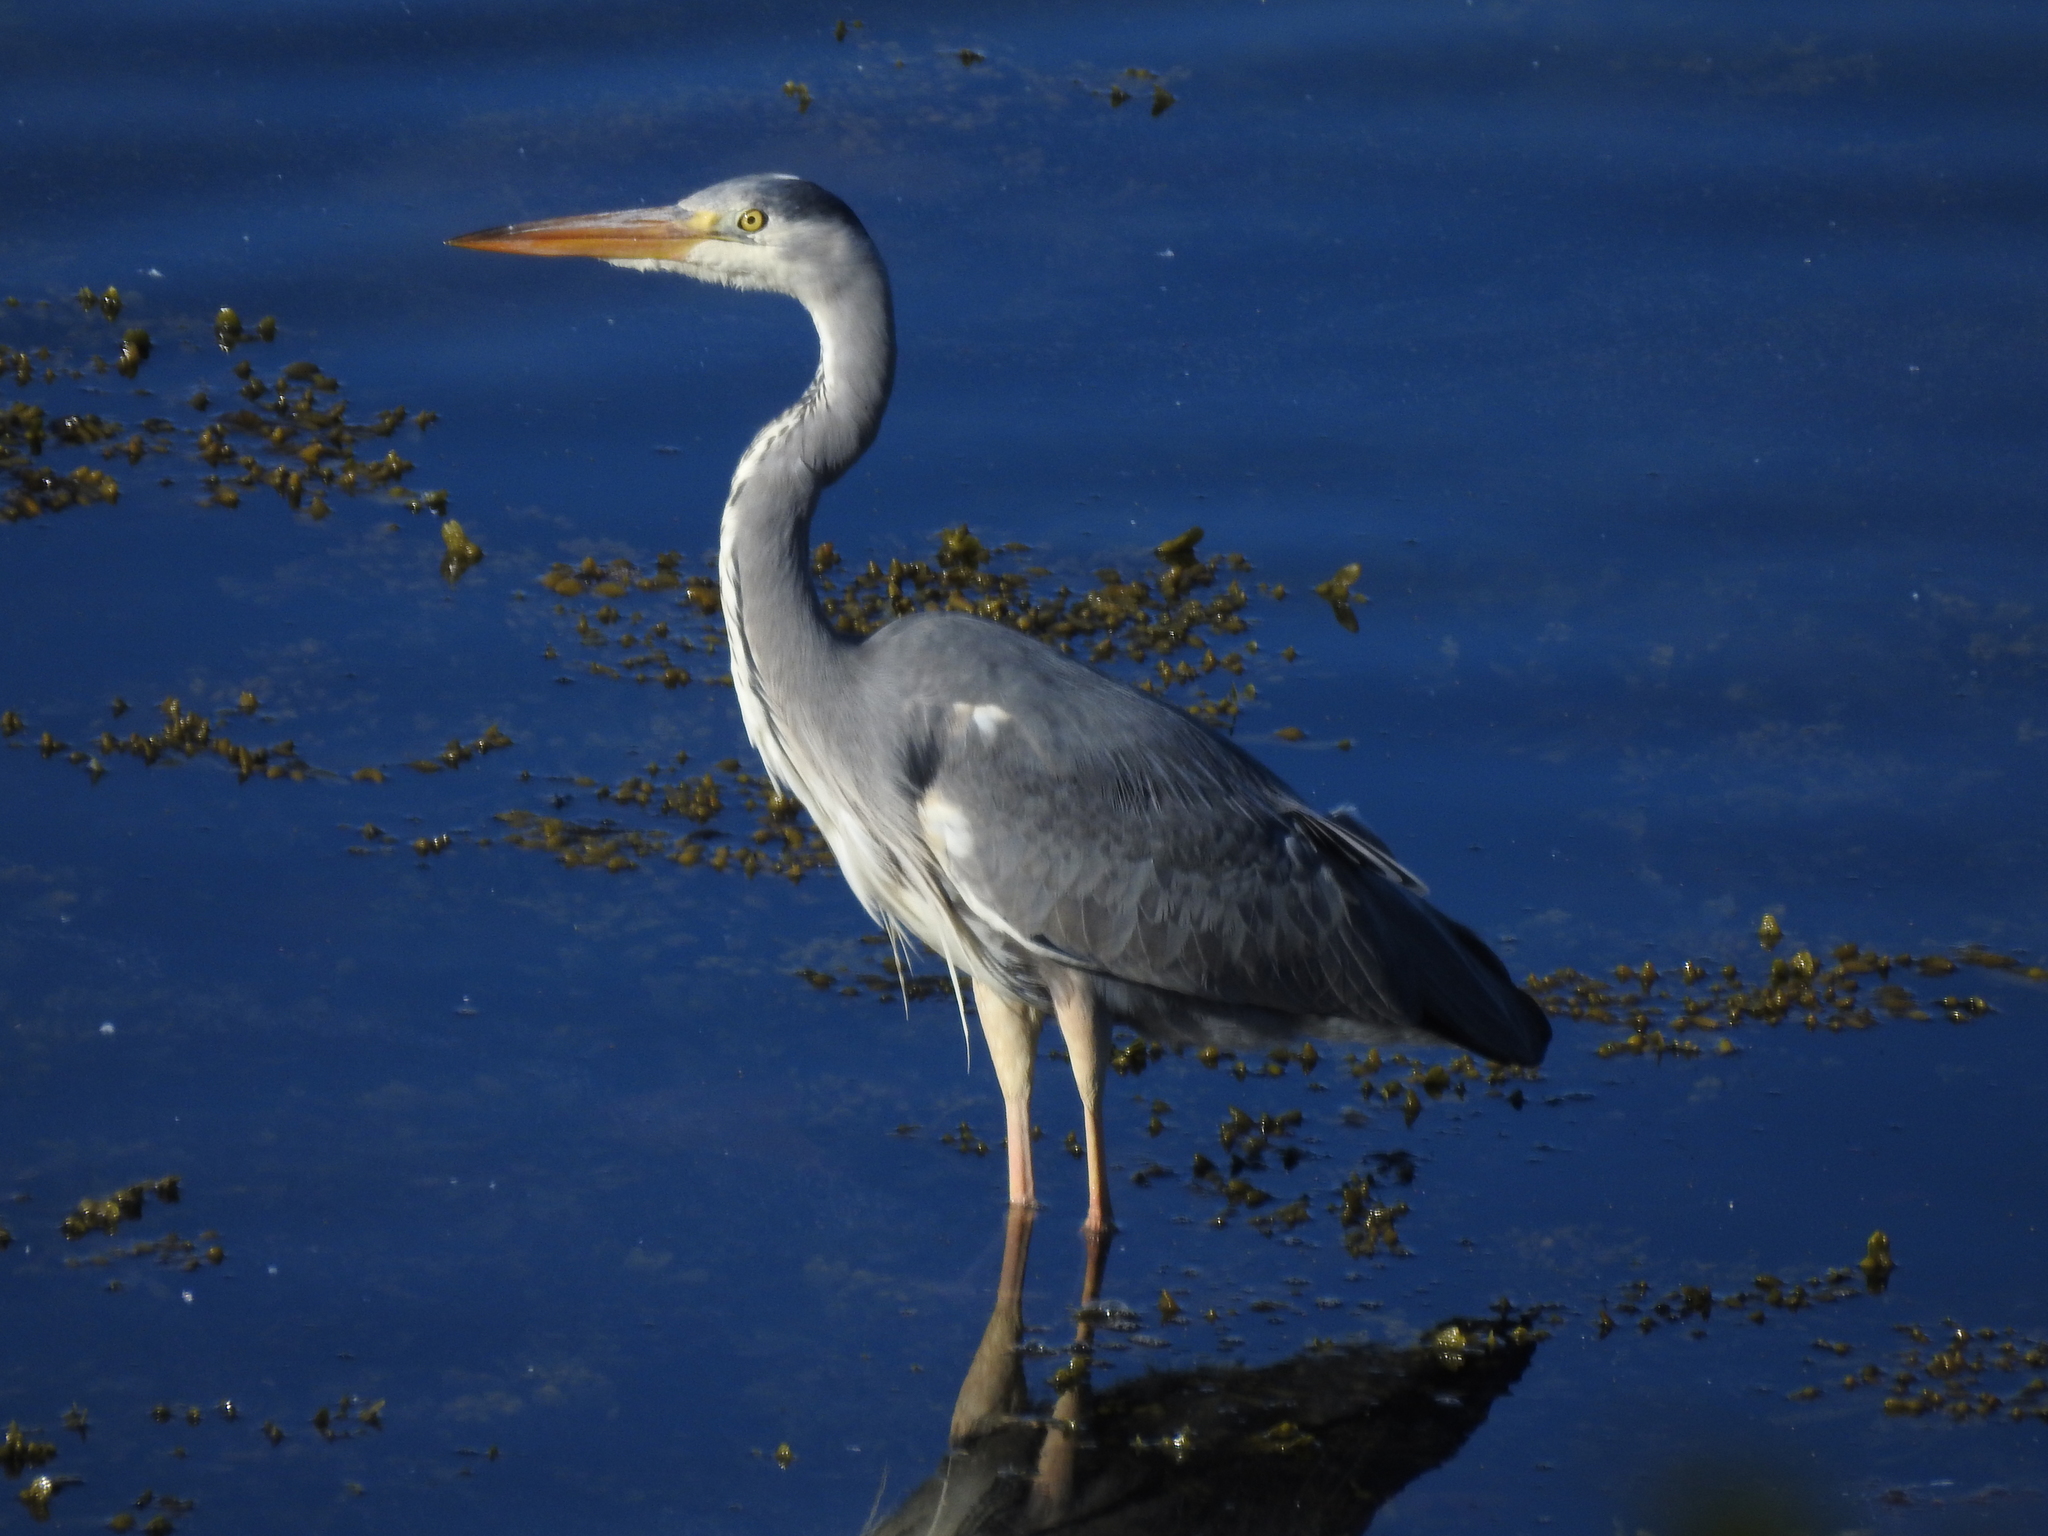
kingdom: Animalia
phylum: Chordata
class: Aves
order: Pelecaniformes
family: Ardeidae
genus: Ardea
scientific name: Ardea cinerea
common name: Grey heron
